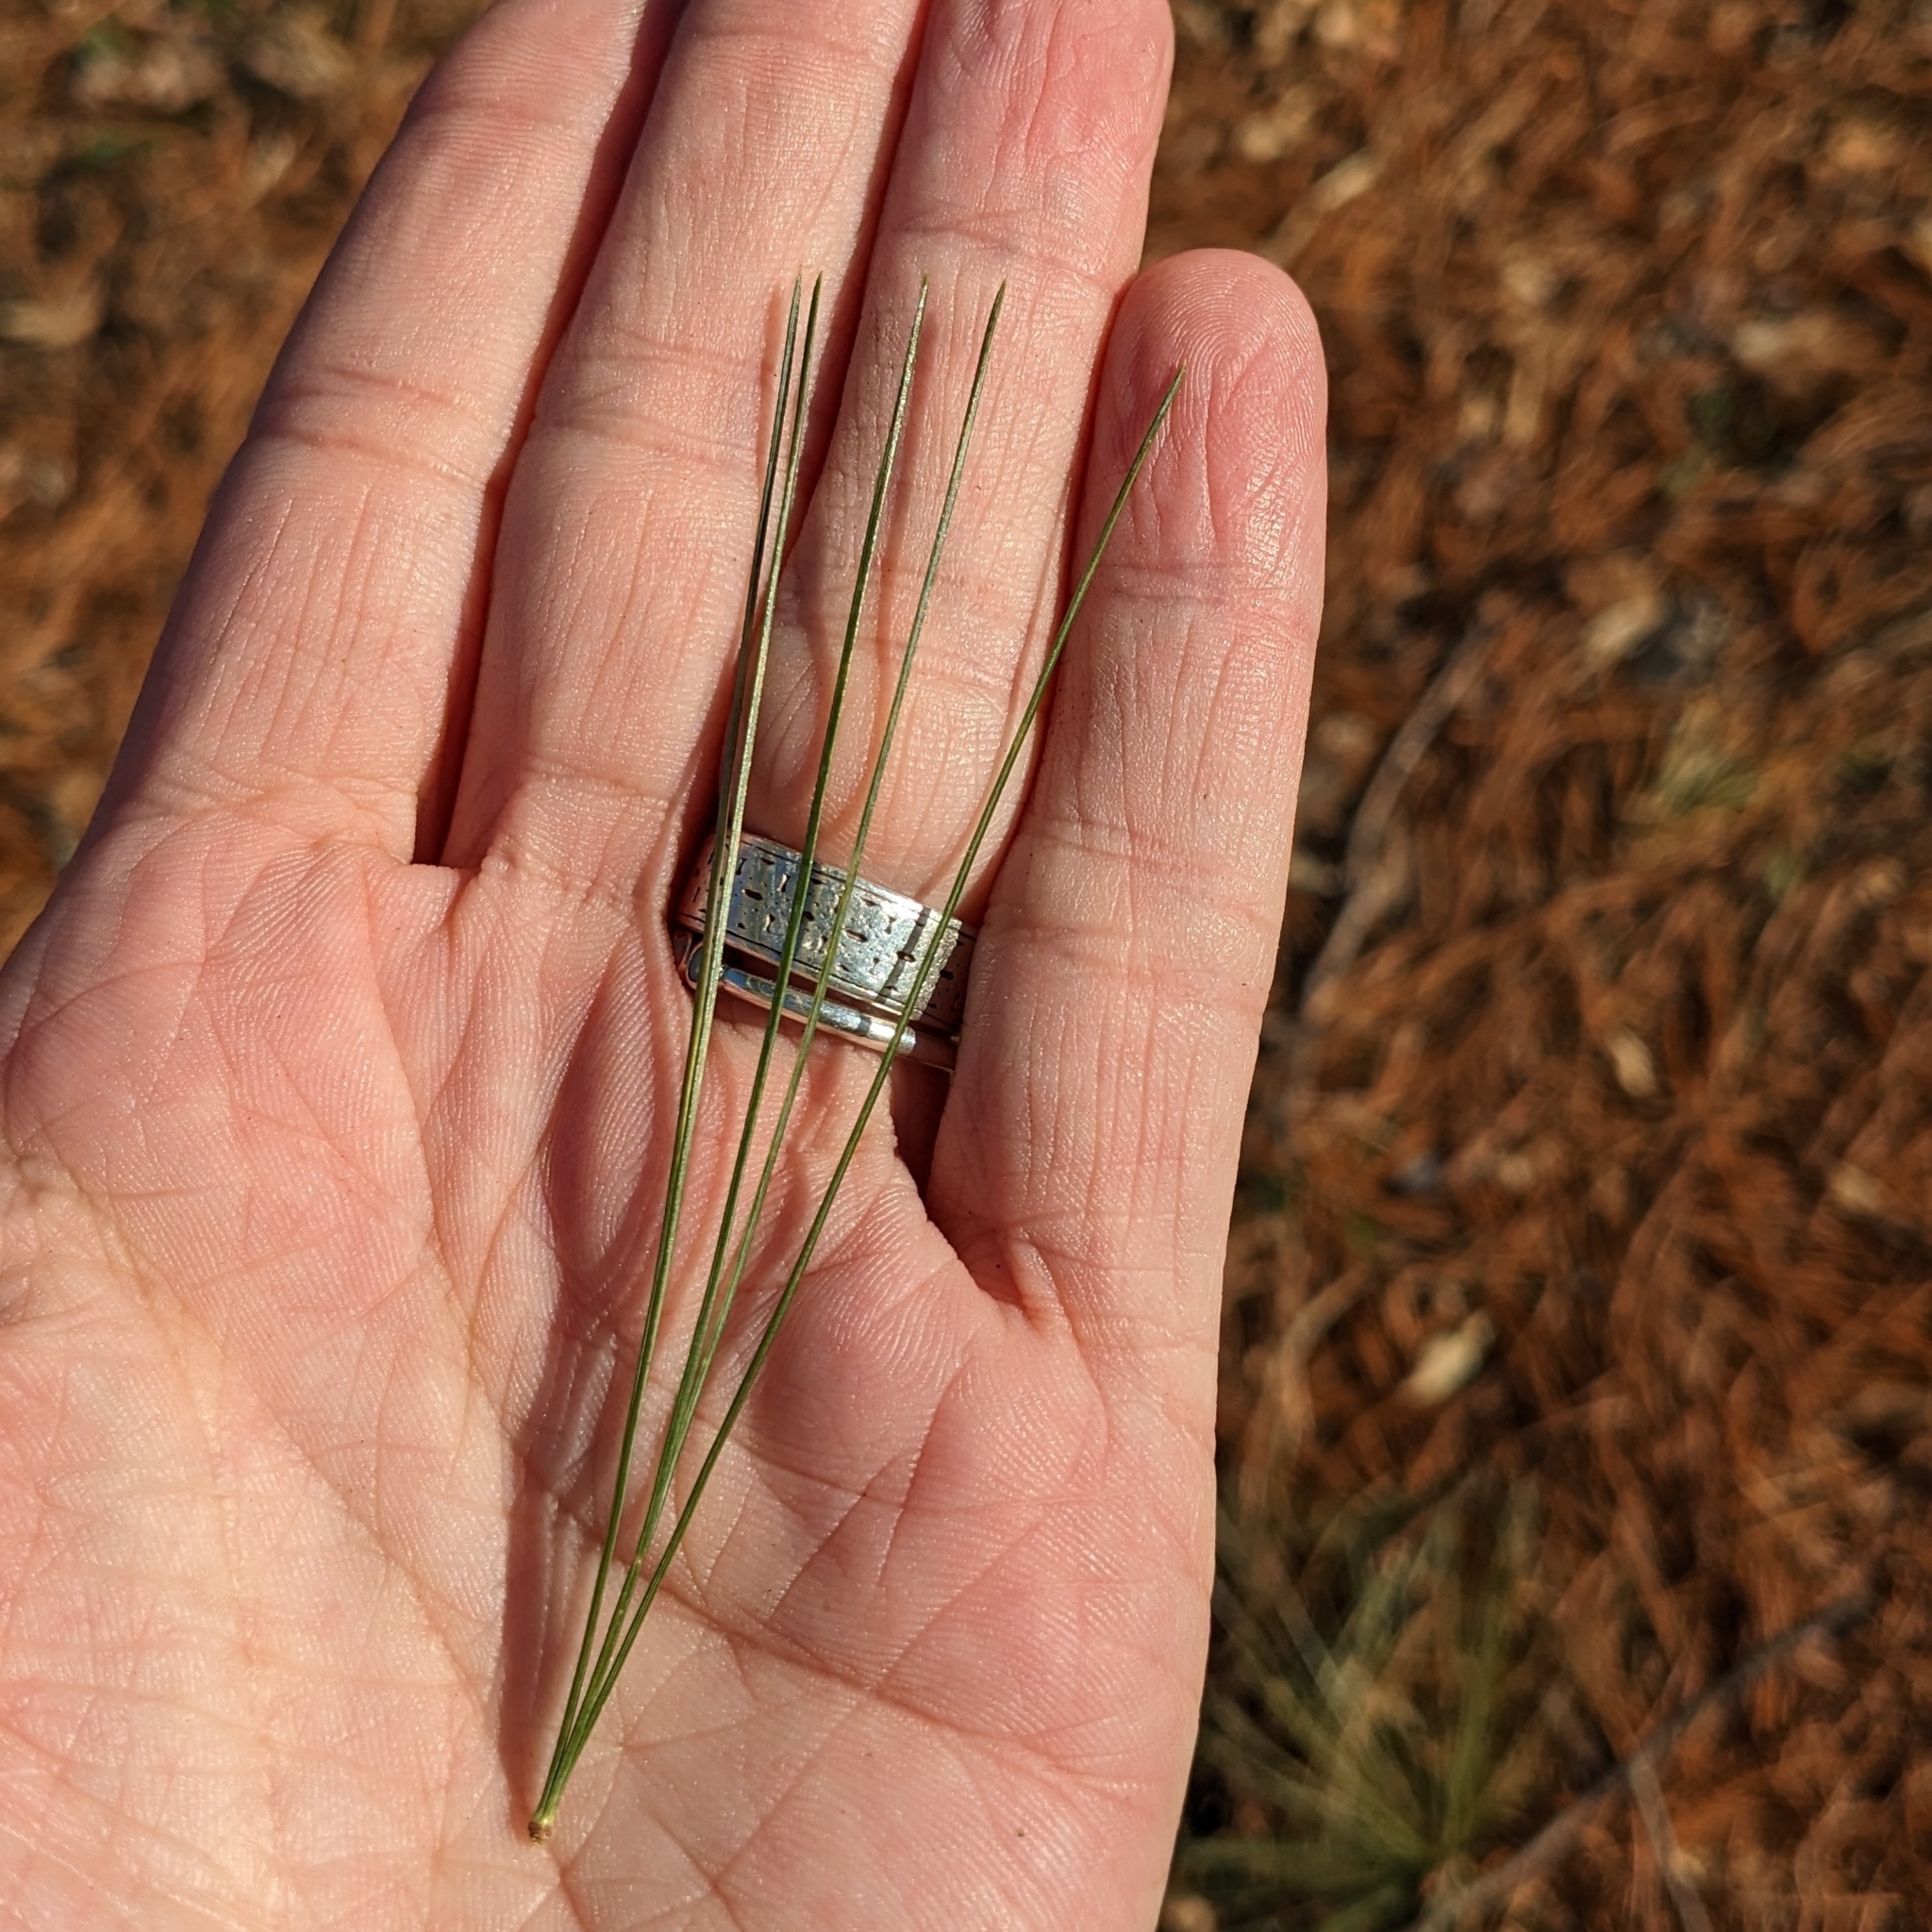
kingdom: Plantae
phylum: Tracheophyta
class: Pinopsida
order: Pinales
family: Pinaceae
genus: Pinus
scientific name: Pinus strobus
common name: Weymouth pine
